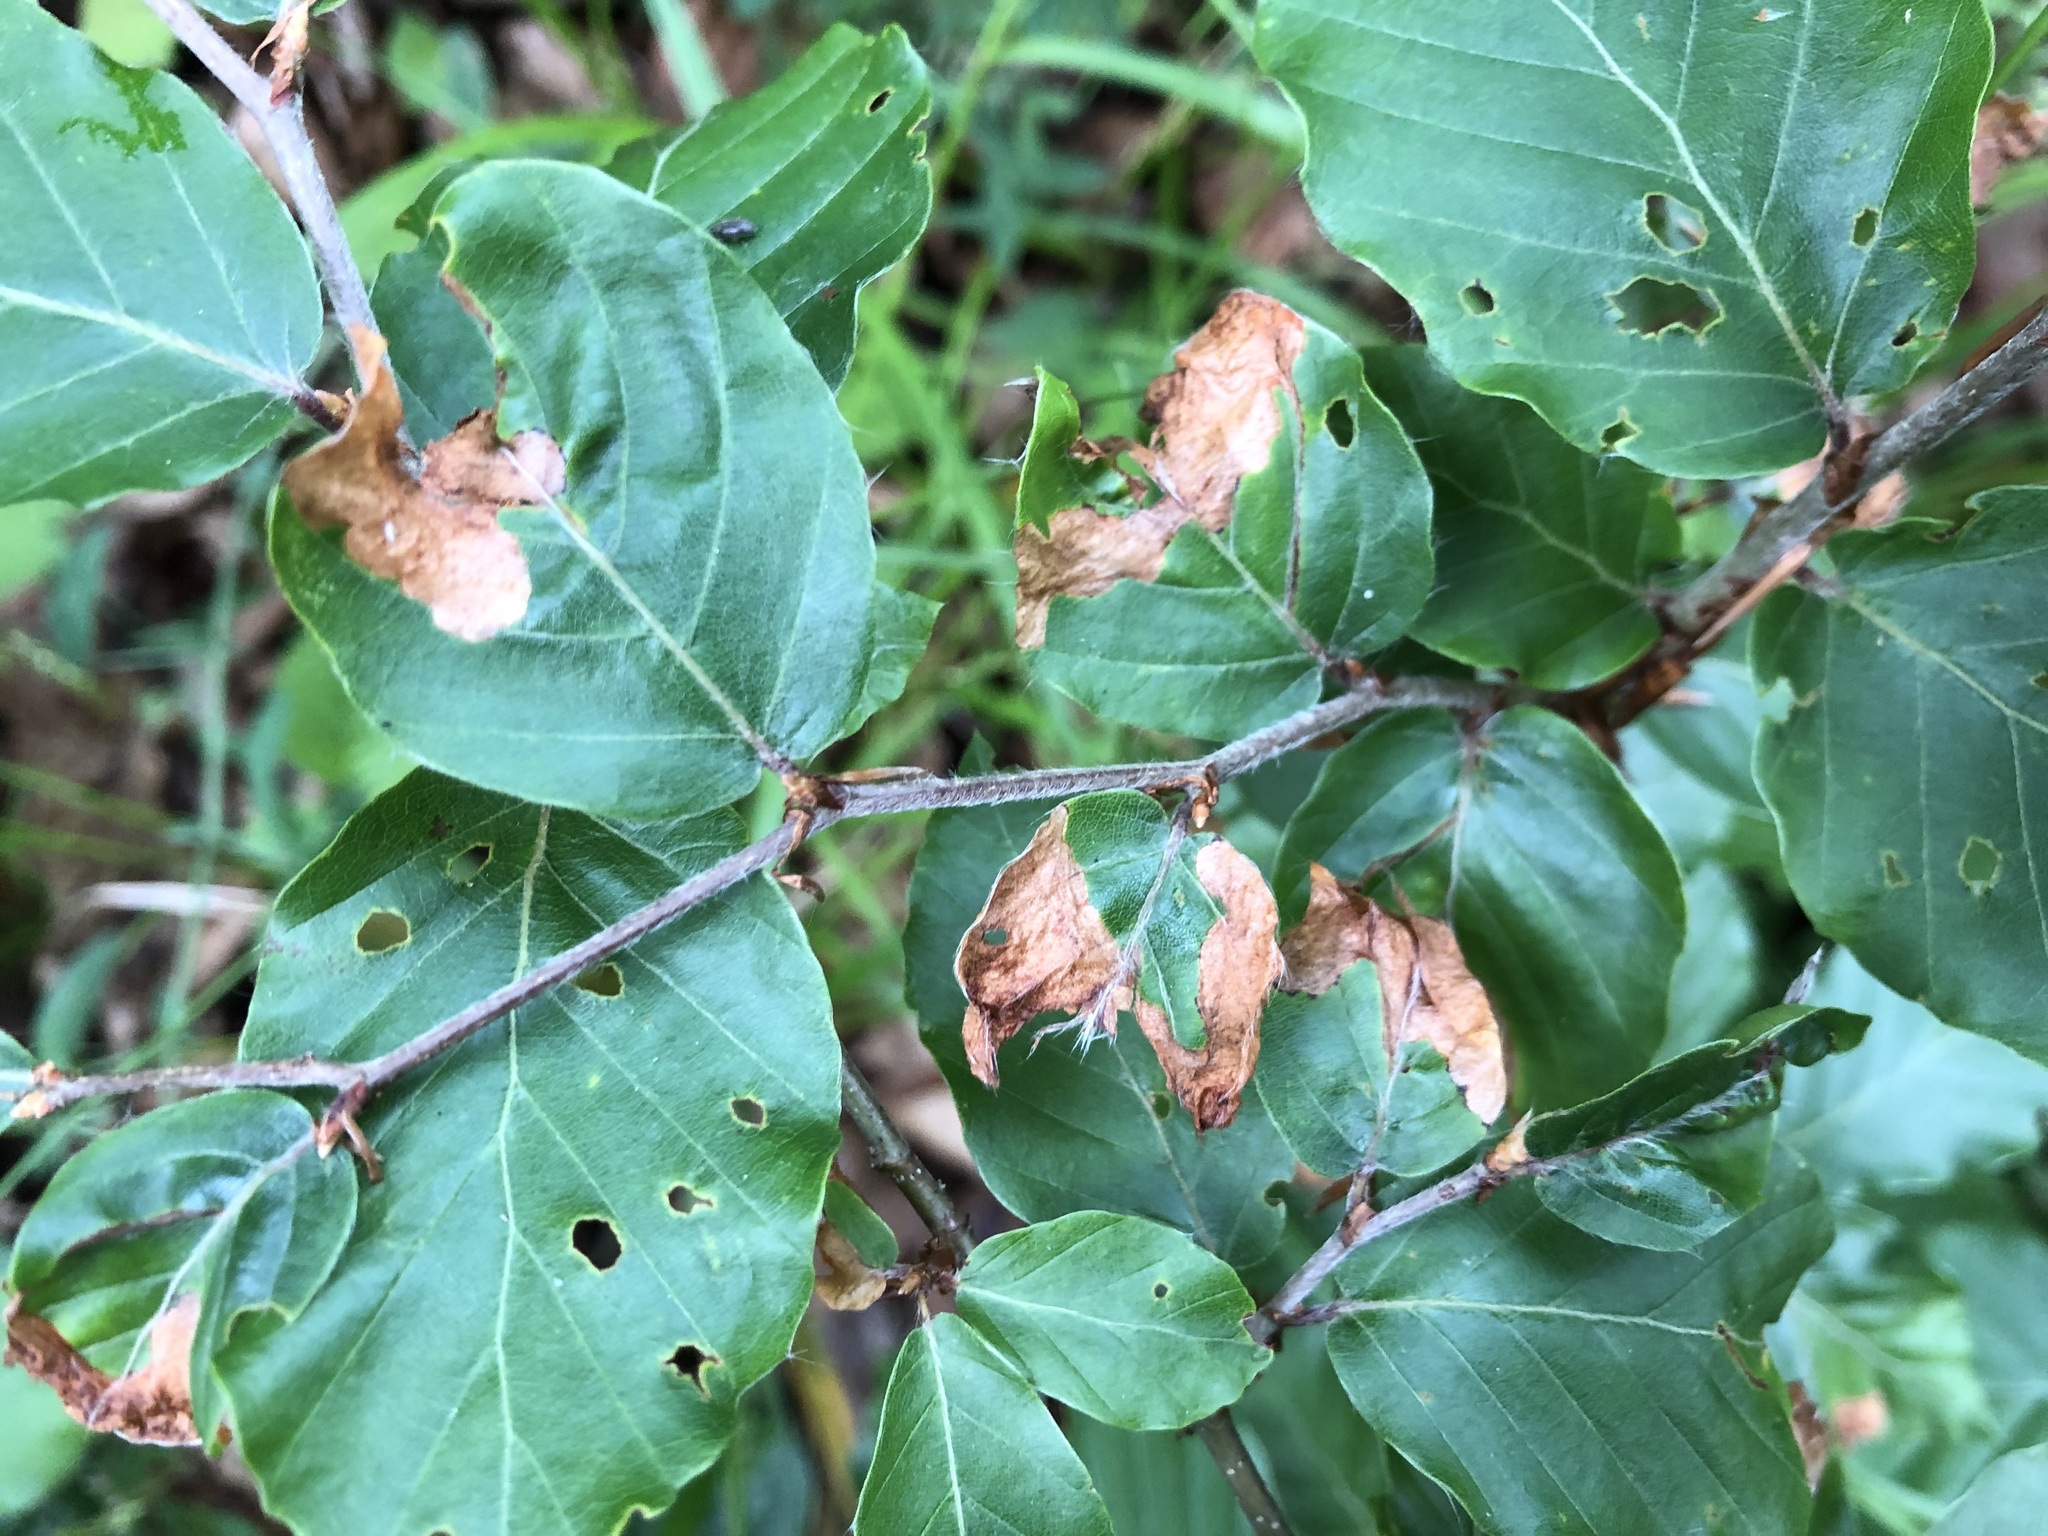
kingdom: Animalia
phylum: Arthropoda
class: Insecta
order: Coleoptera
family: Curculionidae
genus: Orchestes
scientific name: Orchestes fagi
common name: Beech leaf miner
